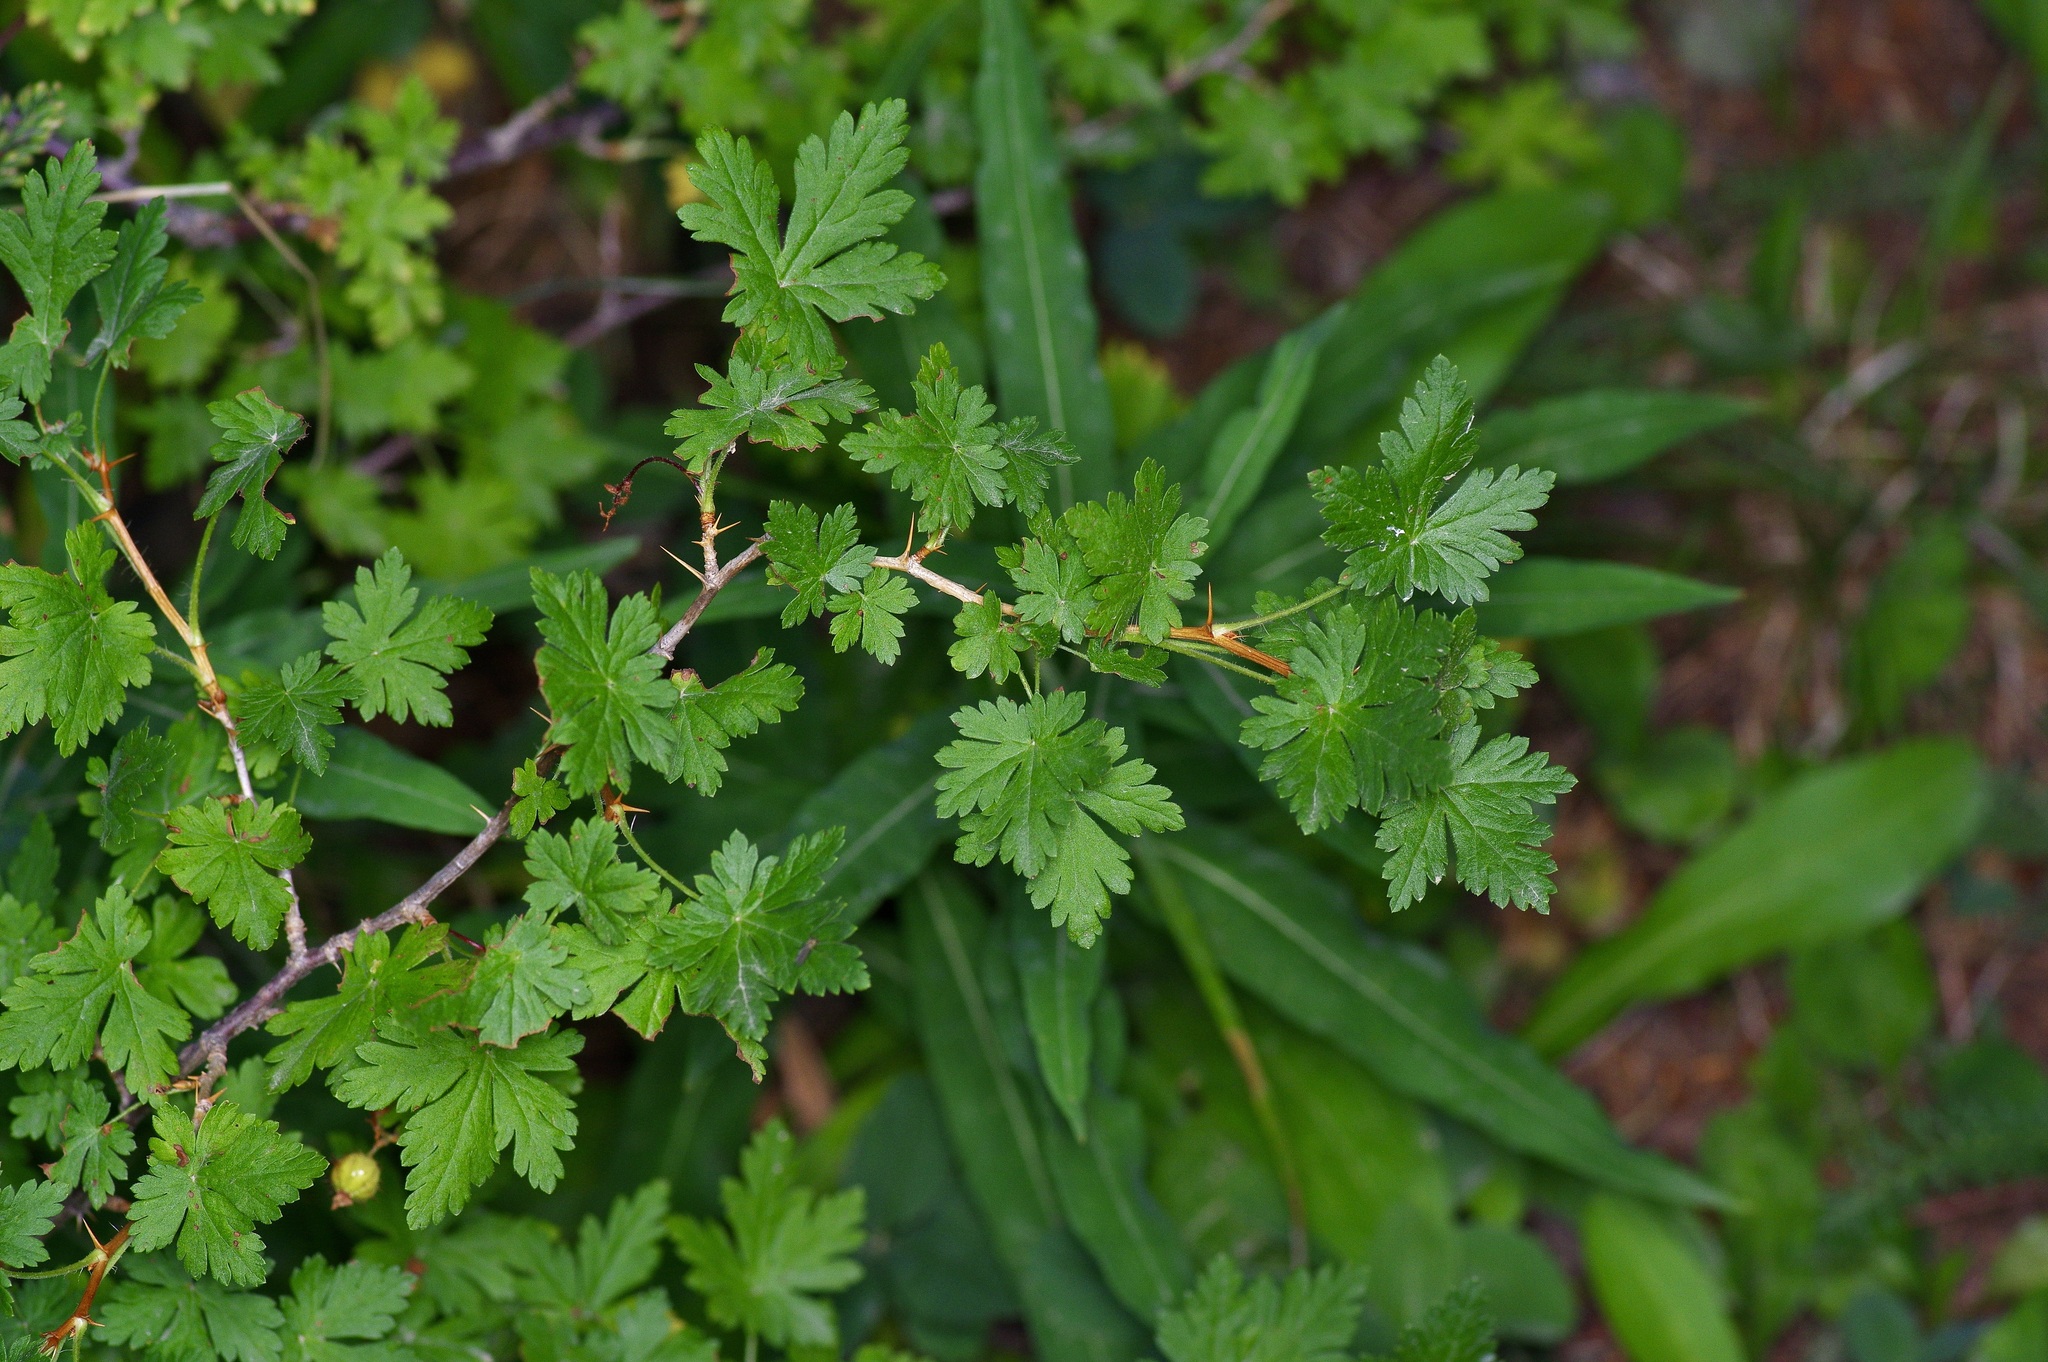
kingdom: Plantae
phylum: Tracheophyta
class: Magnoliopsida
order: Saxifragales
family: Grossulariaceae
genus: Ribes
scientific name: Ribes montigenum
